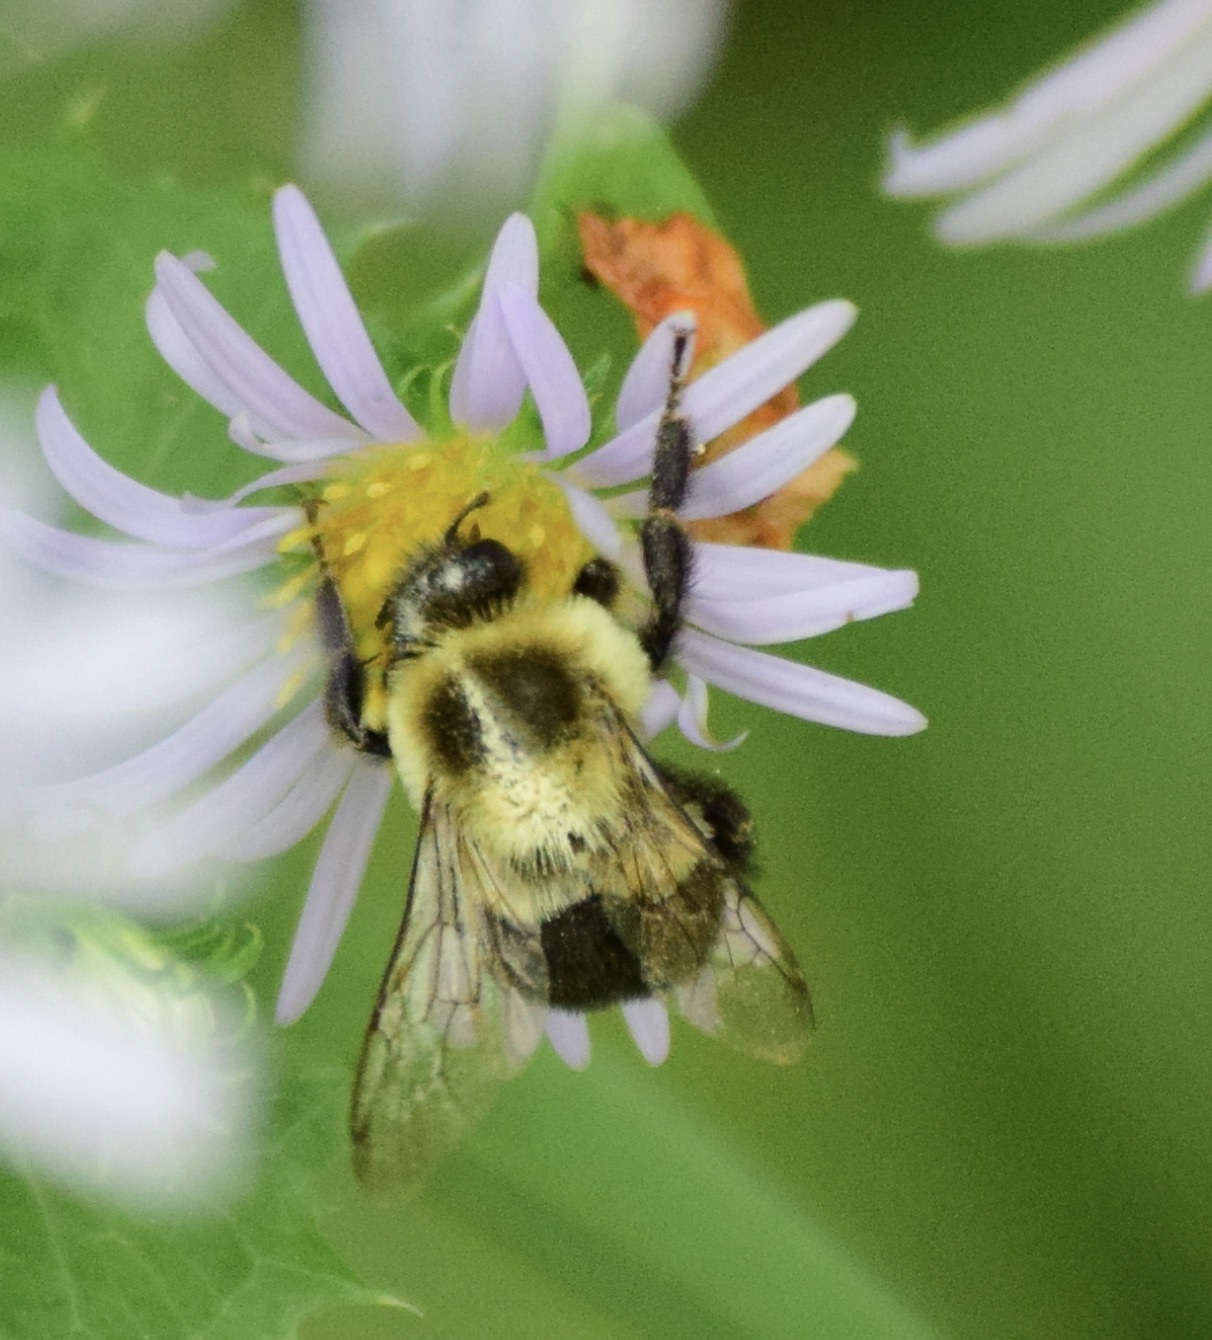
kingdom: Animalia
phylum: Arthropoda
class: Insecta
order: Hymenoptera
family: Apidae
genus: Bombus
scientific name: Bombus impatiens
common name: Common eastern bumble bee
